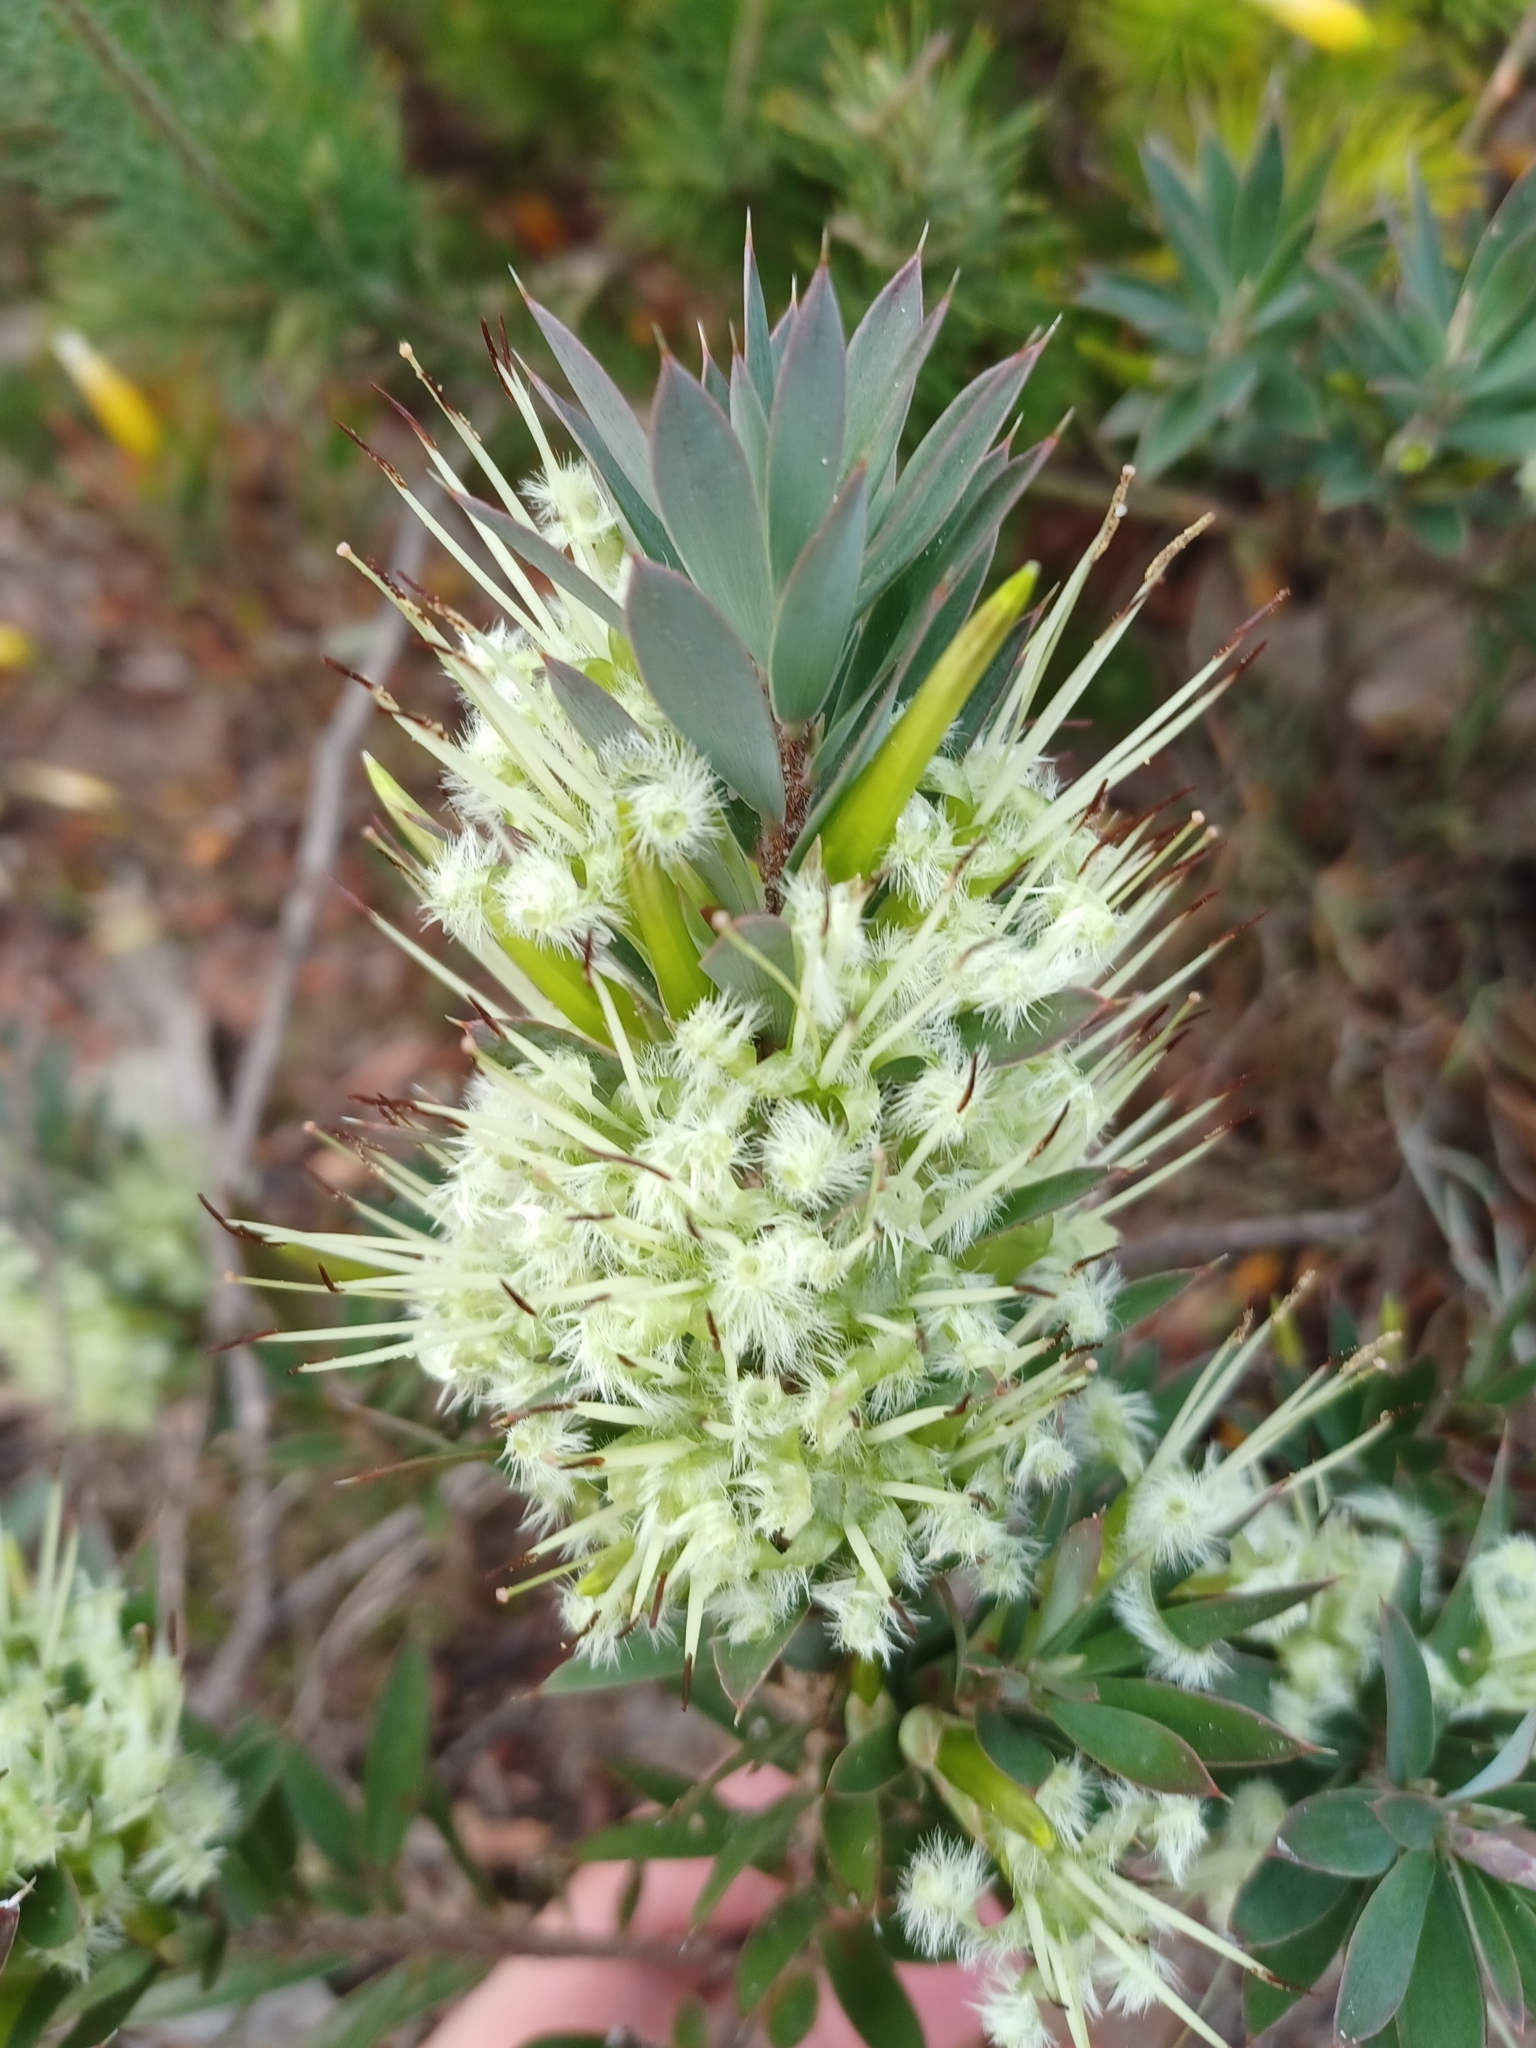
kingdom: Plantae
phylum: Tracheophyta
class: Magnoliopsida
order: Ericales
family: Ericaceae
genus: Styphelia
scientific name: Styphelia adscendens
